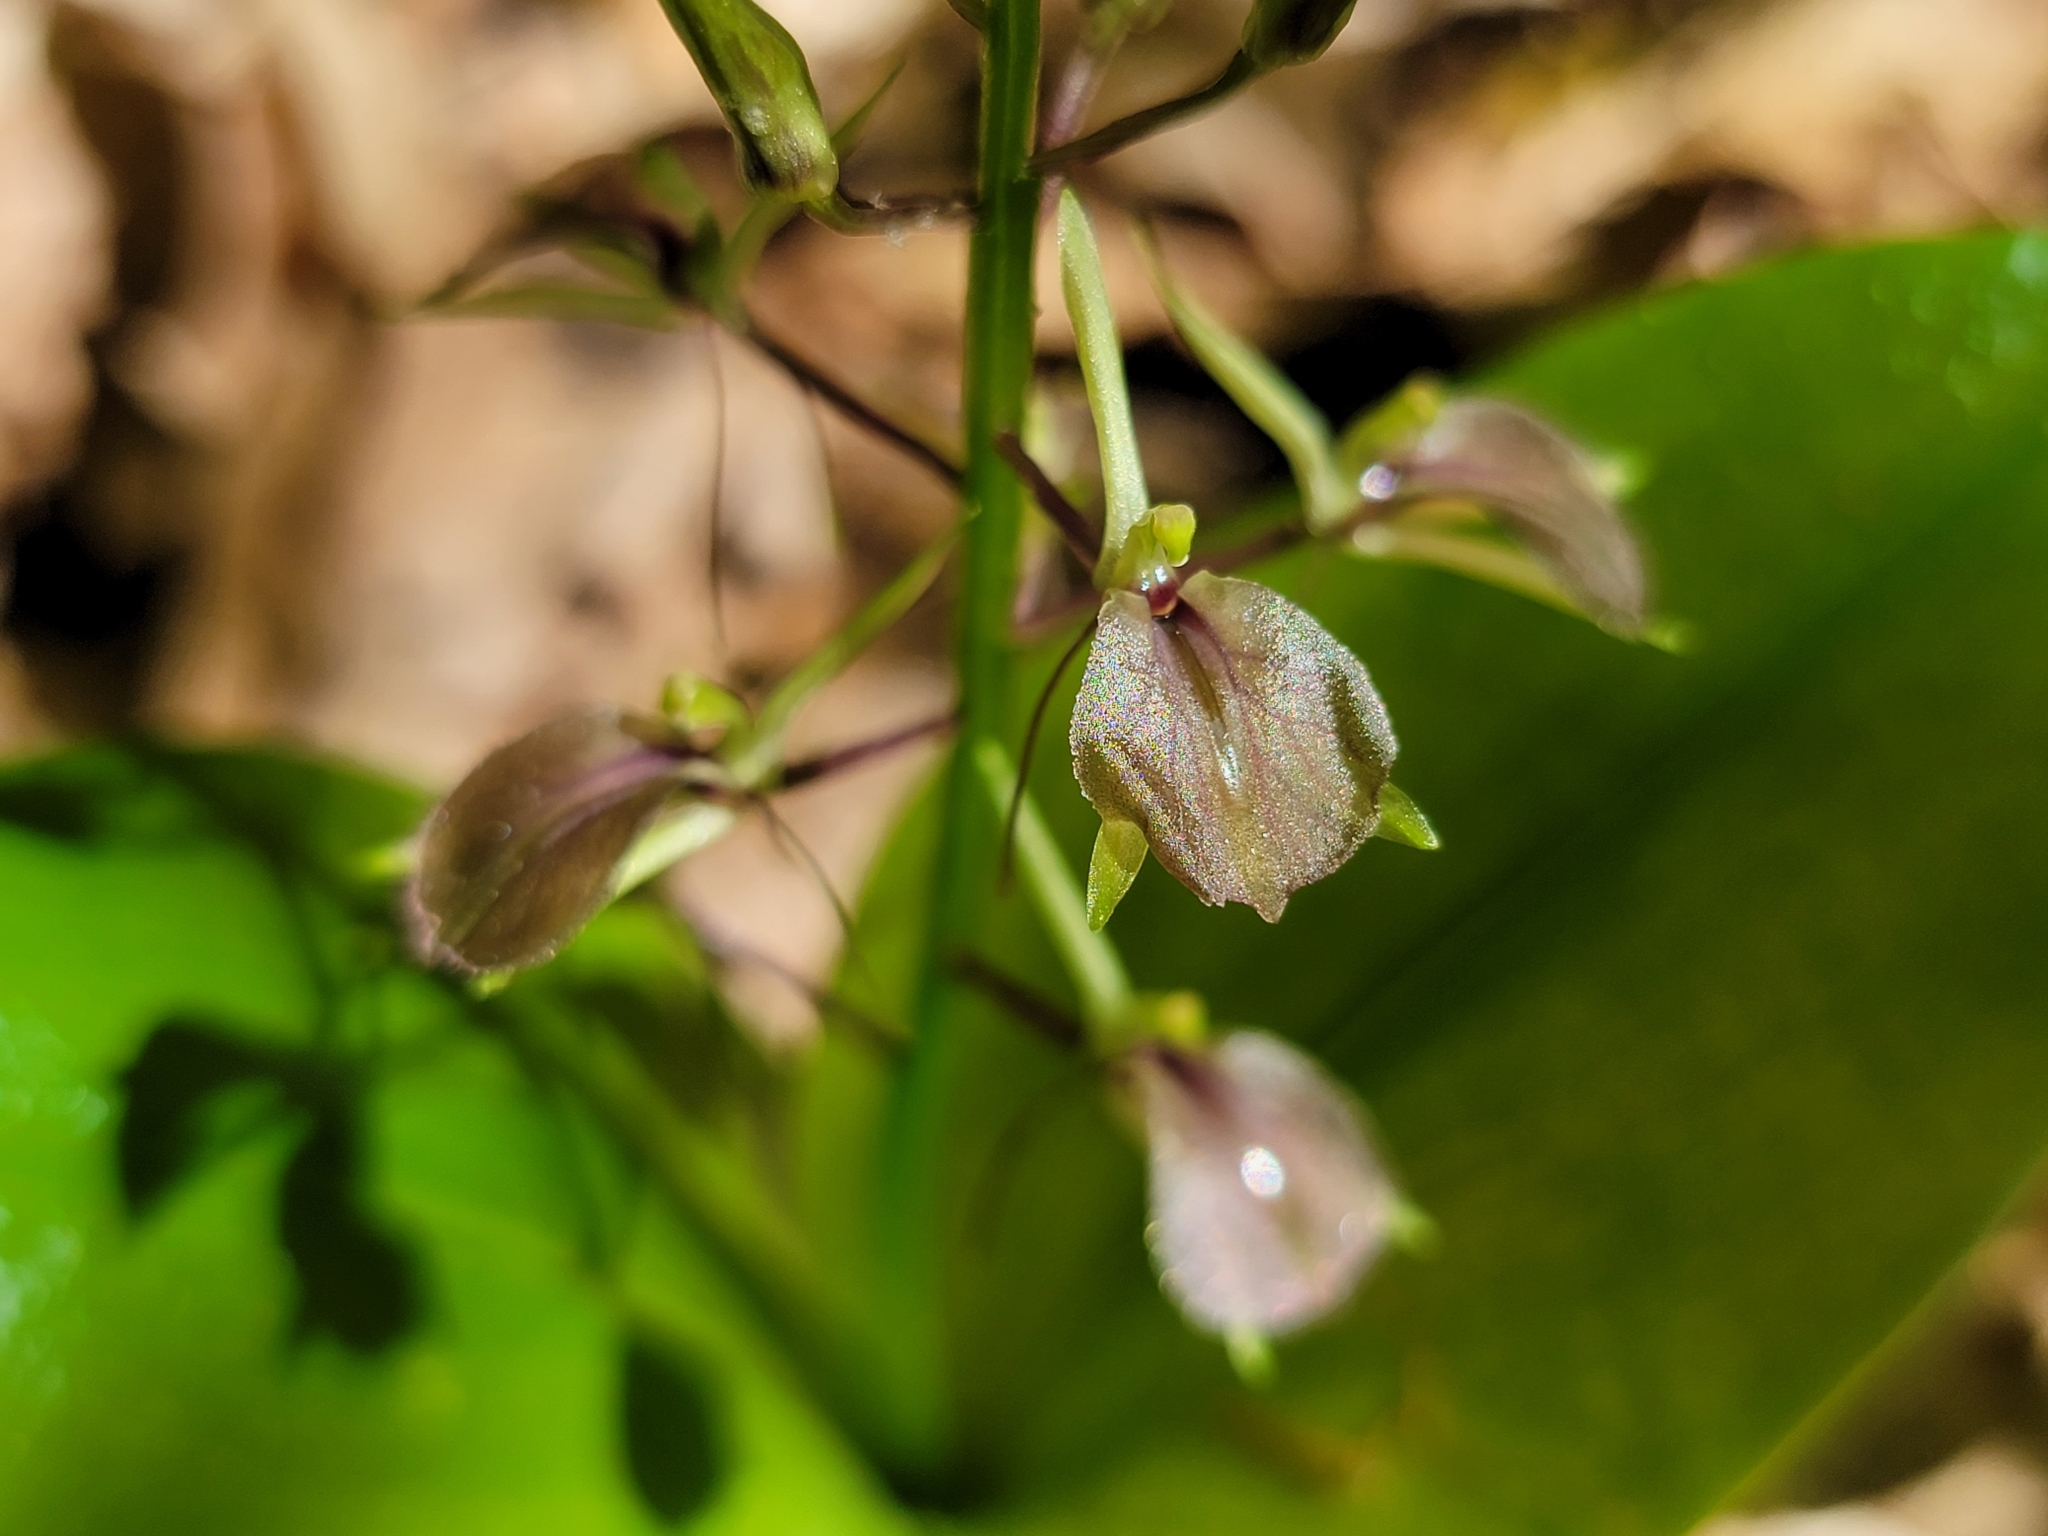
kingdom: Plantae
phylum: Tracheophyta
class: Liliopsida
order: Asparagales
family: Orchidaceae
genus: Liparis
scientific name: Liparis liliifolia
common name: Brown wide-lip orchid
